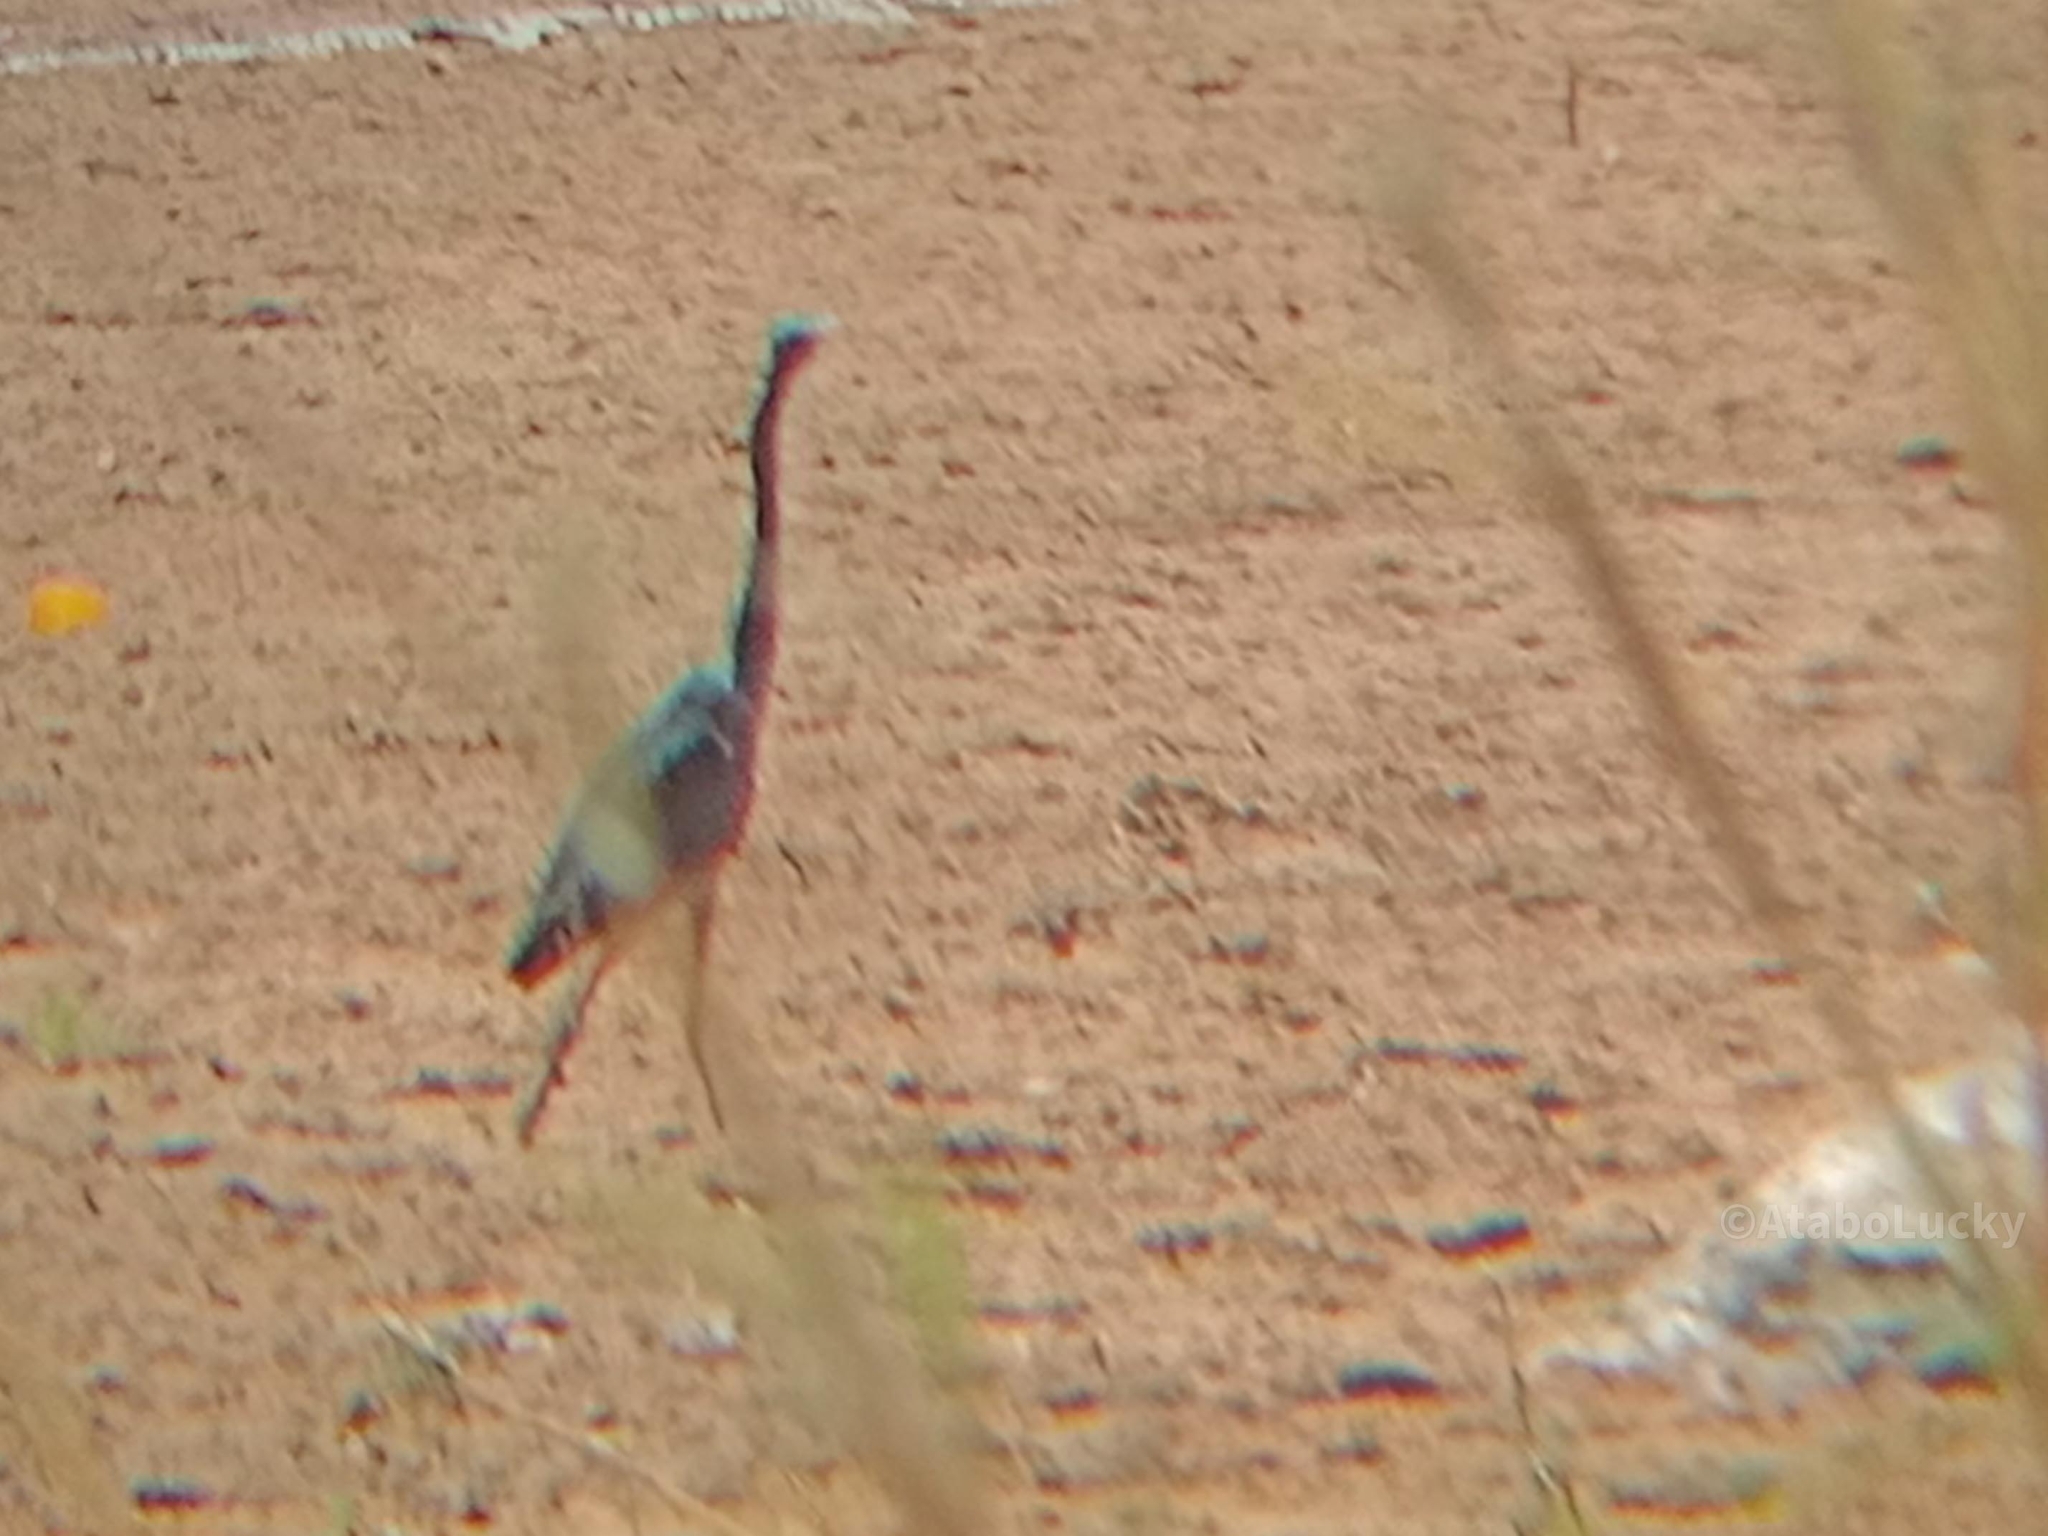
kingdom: Animalia
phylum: Chordata
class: Aves
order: Pelecaniformes
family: Ardeidae
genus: Ardea
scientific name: Ardea melanocephala
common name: Black-headed heron
